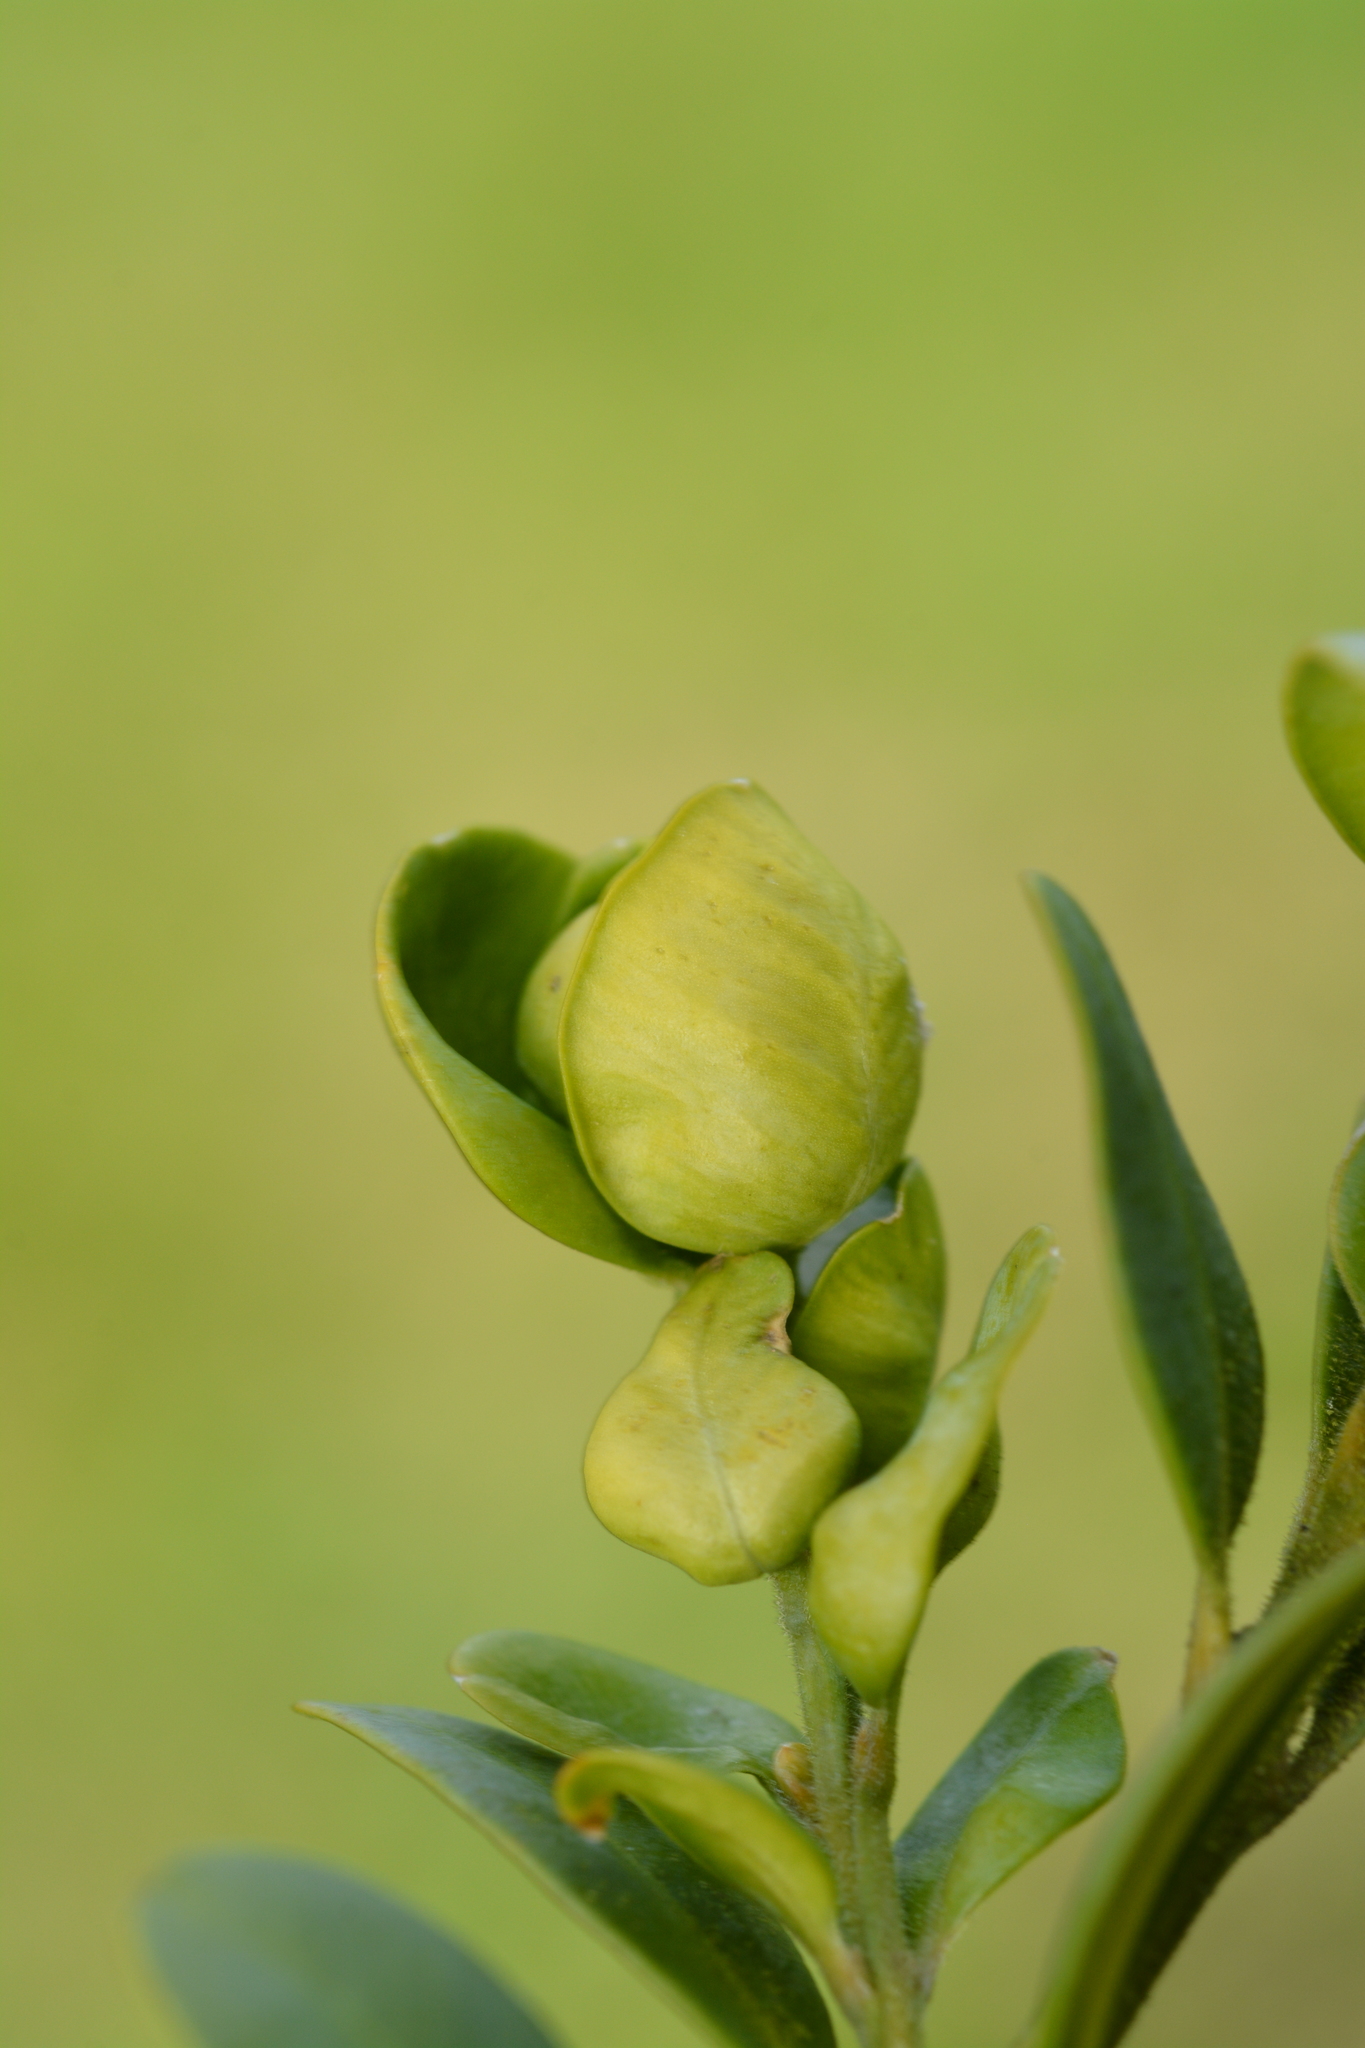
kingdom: Animalia
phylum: Arthropoda
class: Insecta
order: Hemiptera
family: Psyllidae
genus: Psylla
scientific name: Psylla buxi
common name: Boxwood psyllid
